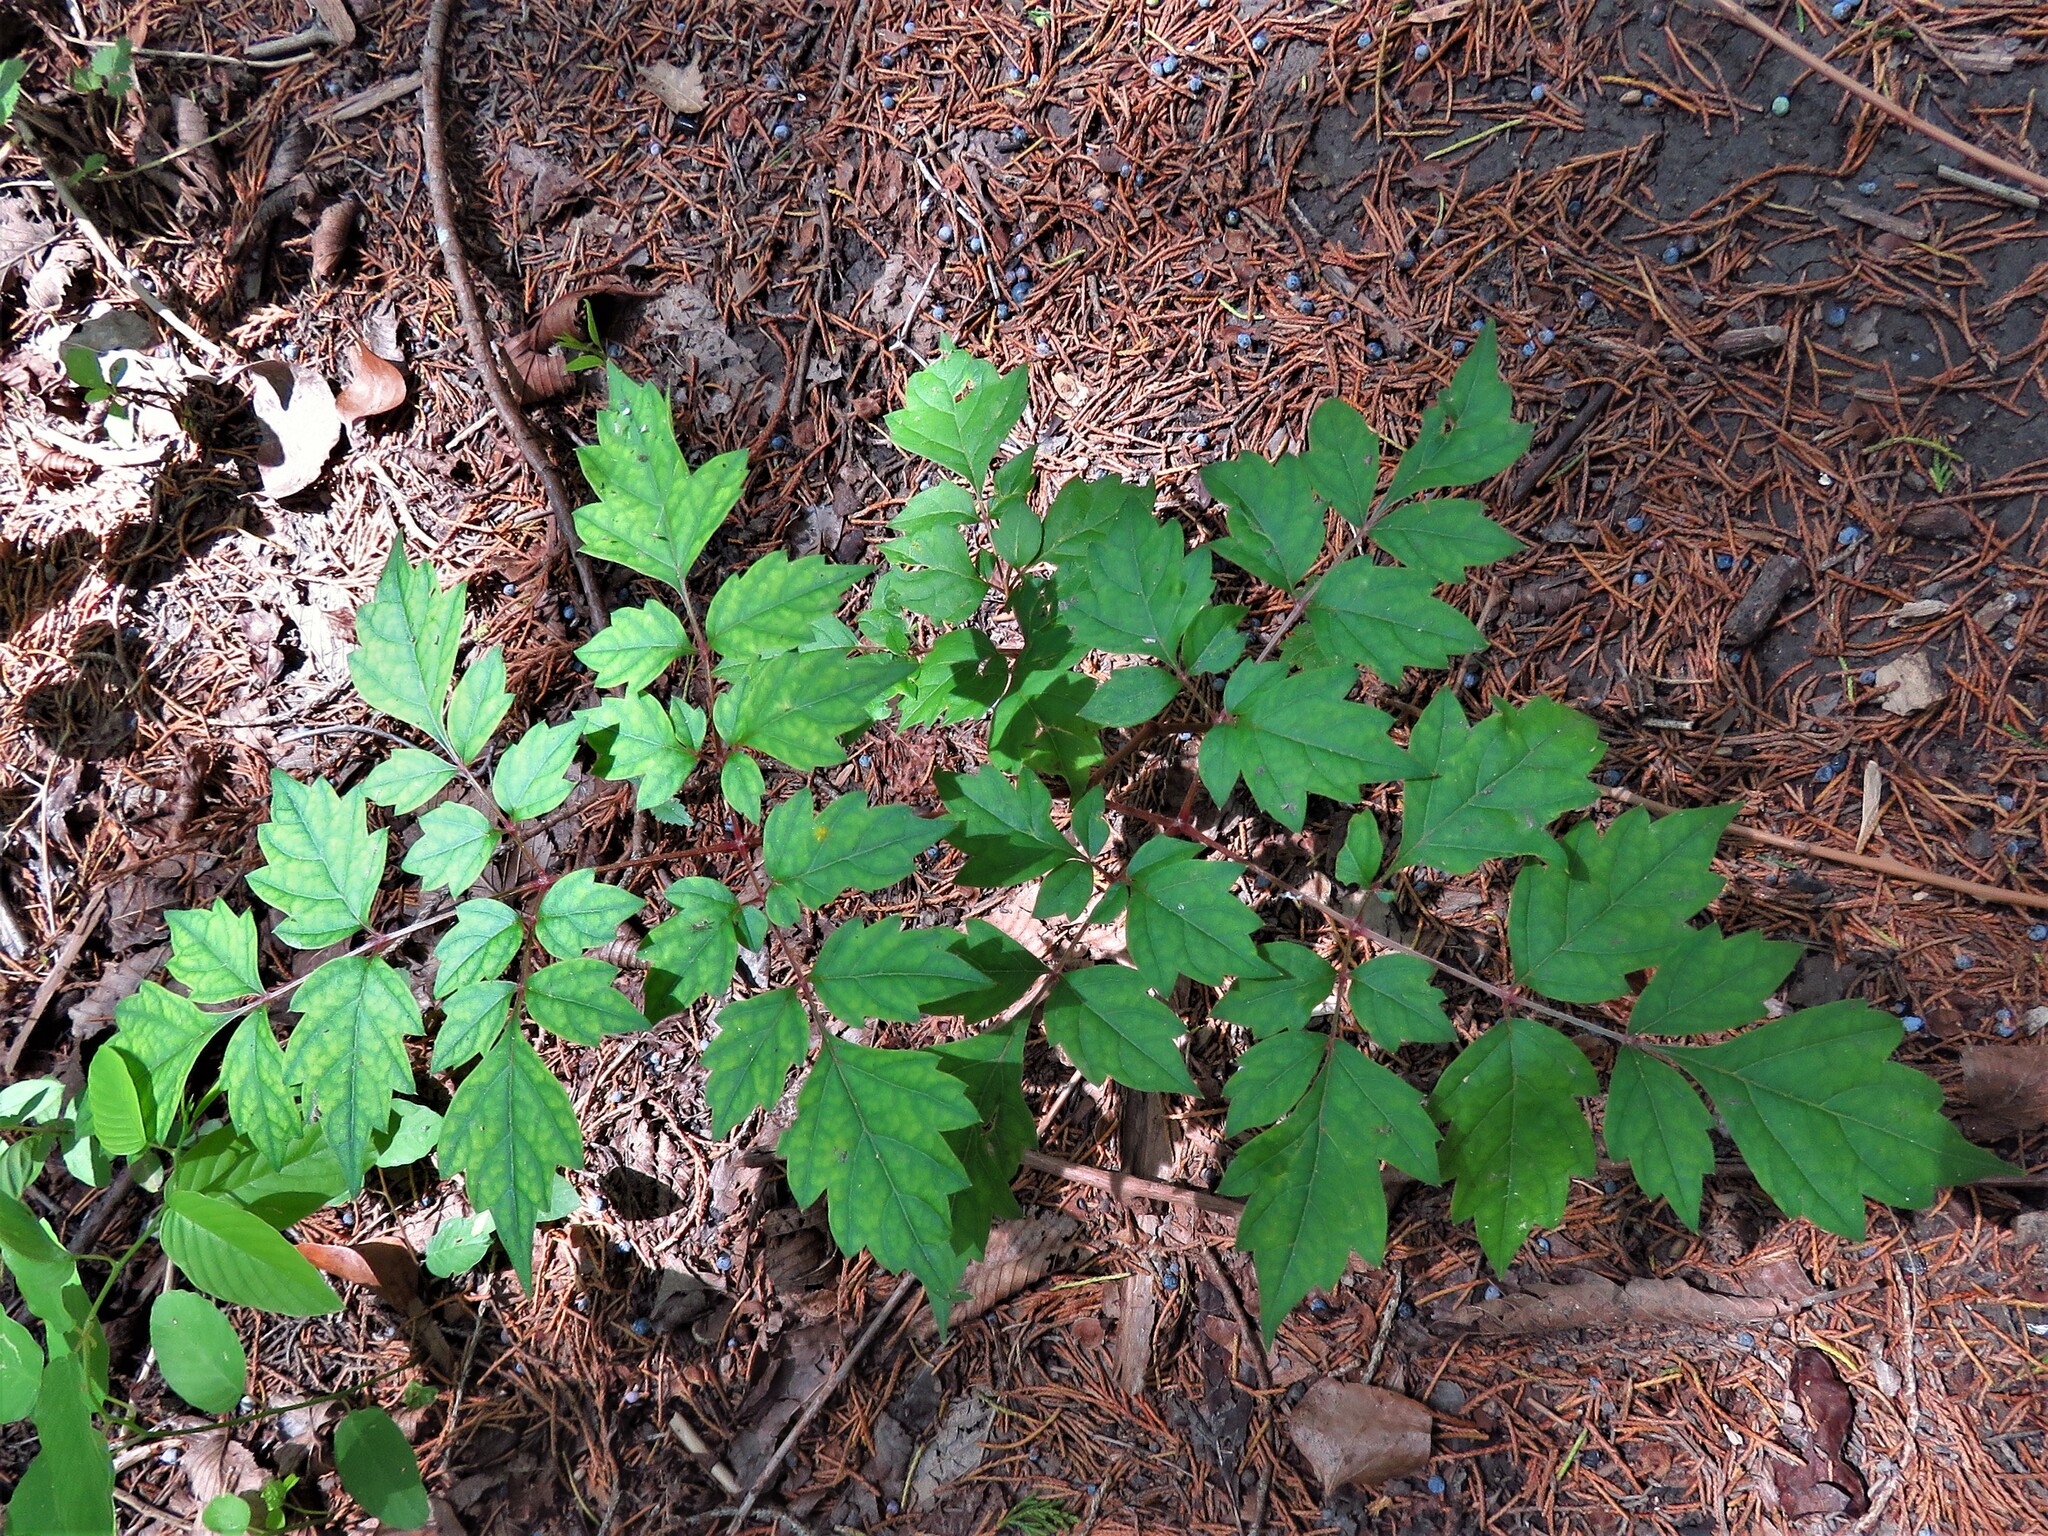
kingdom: Plantae
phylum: Tracheophyta
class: Magnoliopsida
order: Vitales
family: Vitaceae
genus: Nekemias
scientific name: Nekemias arborea
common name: Peppervine
